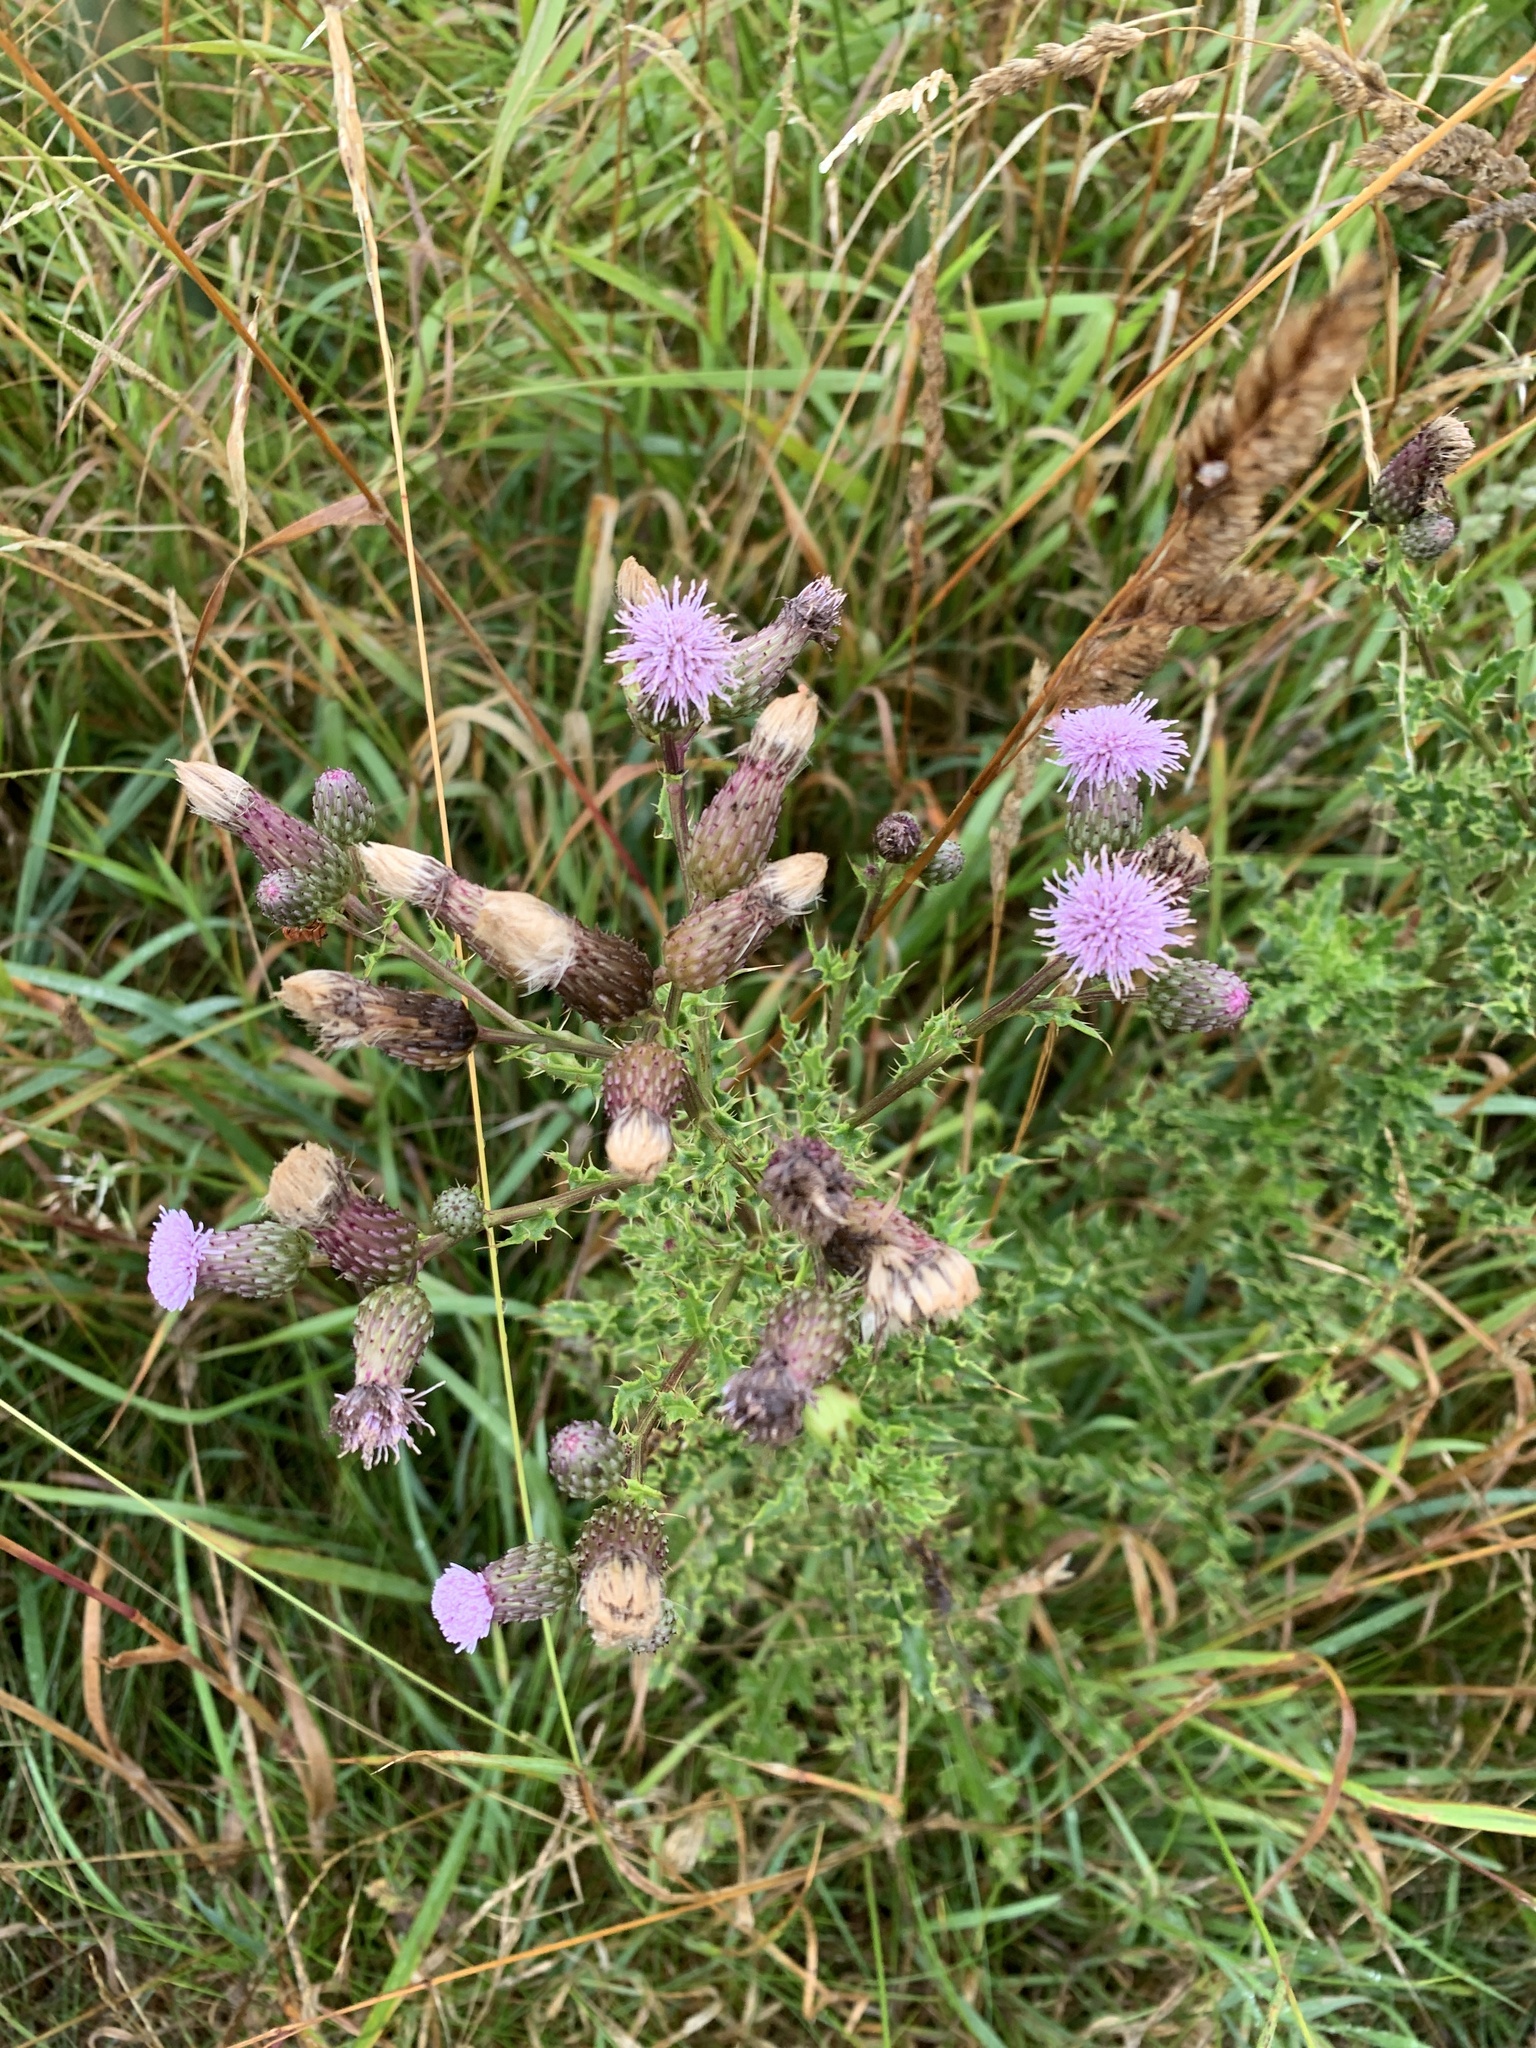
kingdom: Plantae
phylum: Tracheophyta
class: Magnoliopsida
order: Asterales
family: Asteraceae
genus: Cirsium
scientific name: Cirsium arvense
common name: Creeping thistle
